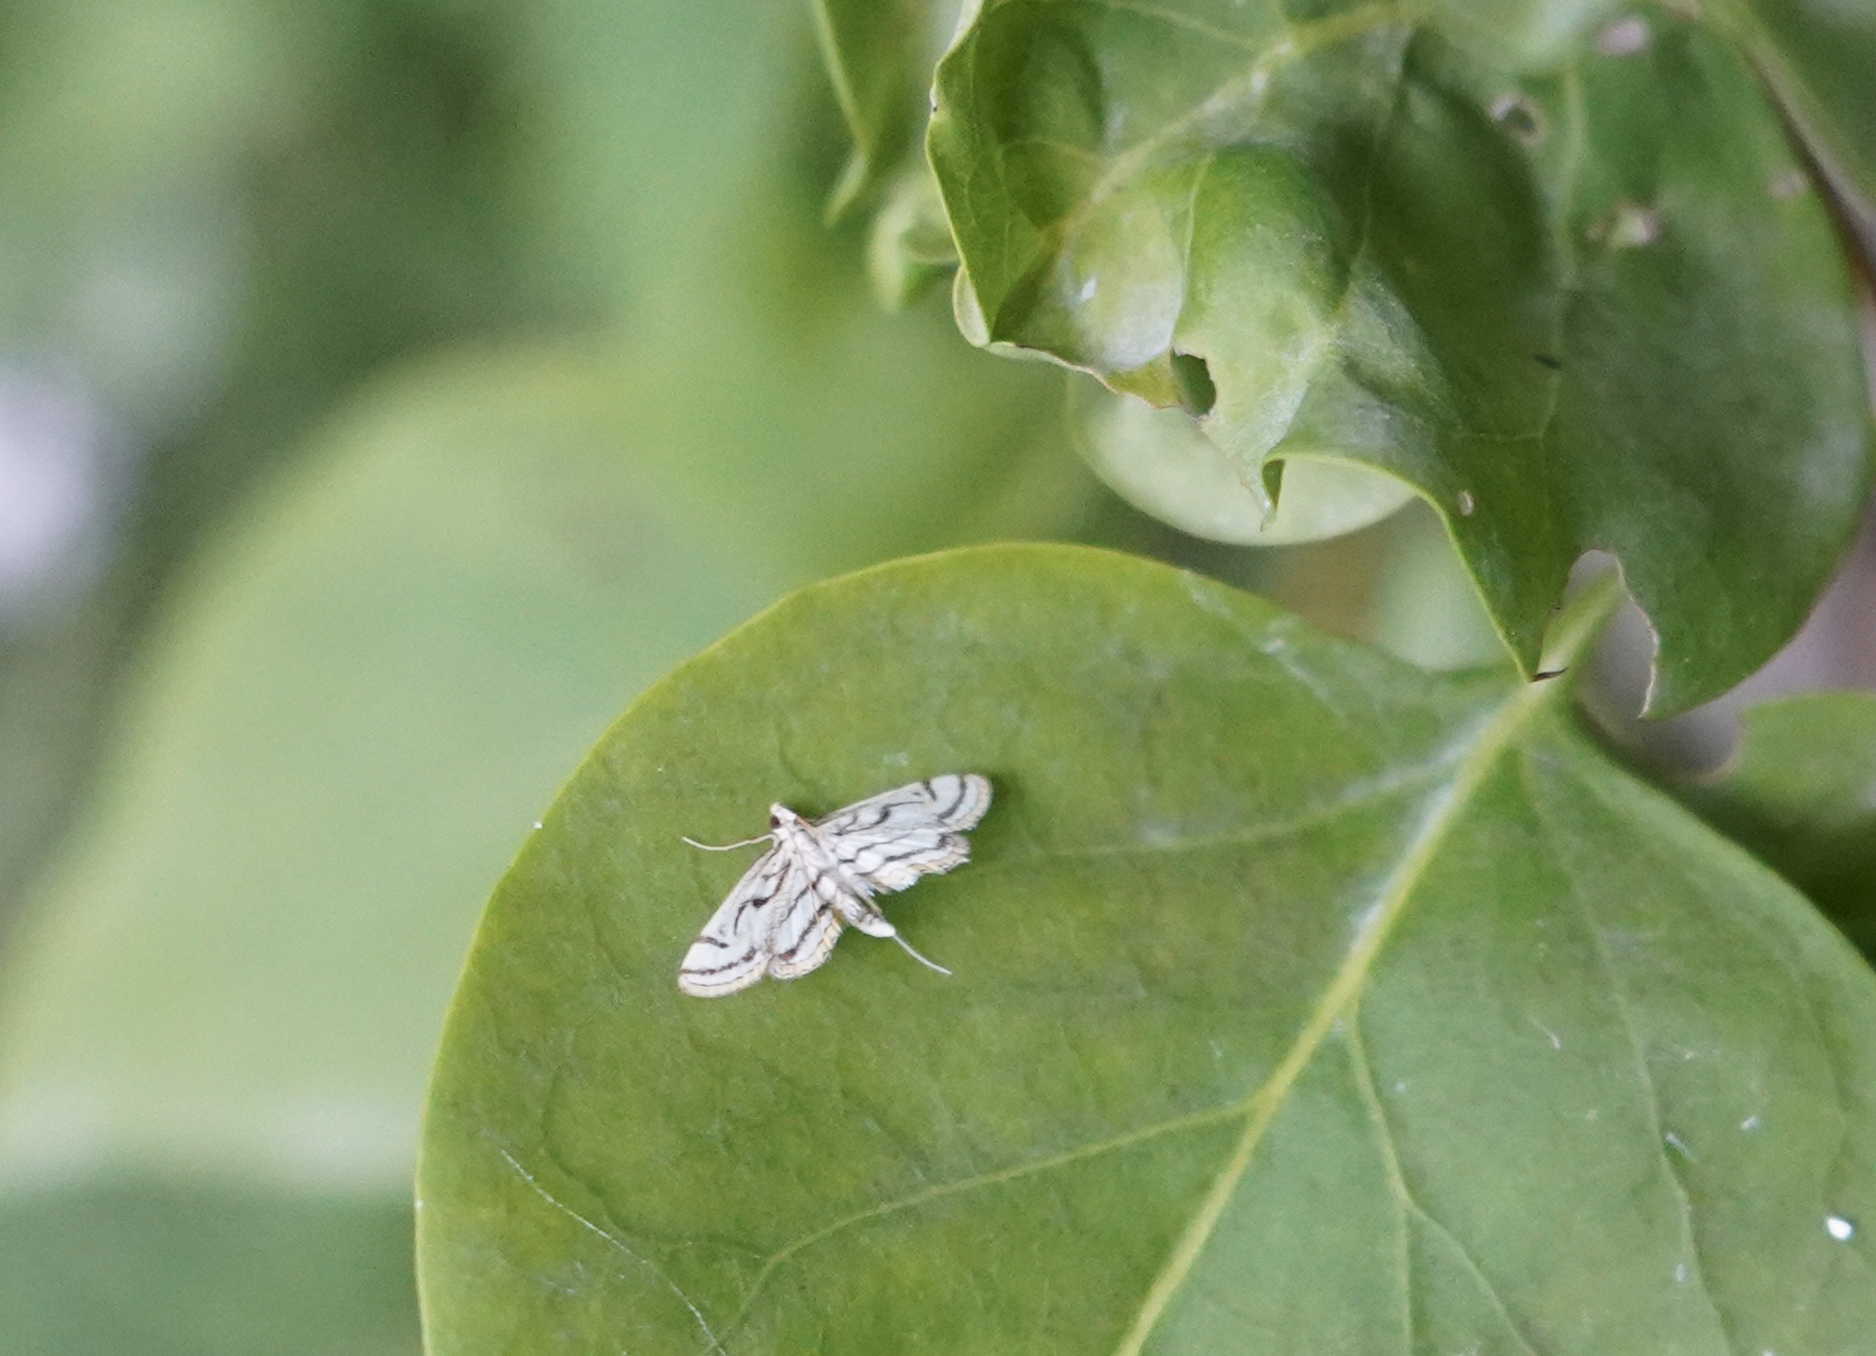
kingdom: Animalia
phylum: Arthropoda
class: Insecta
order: Lepidoptera
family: Crambidae
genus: Parapoynx
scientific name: Parapoynx badiusalis
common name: Chestnut-marked pondweed moth
